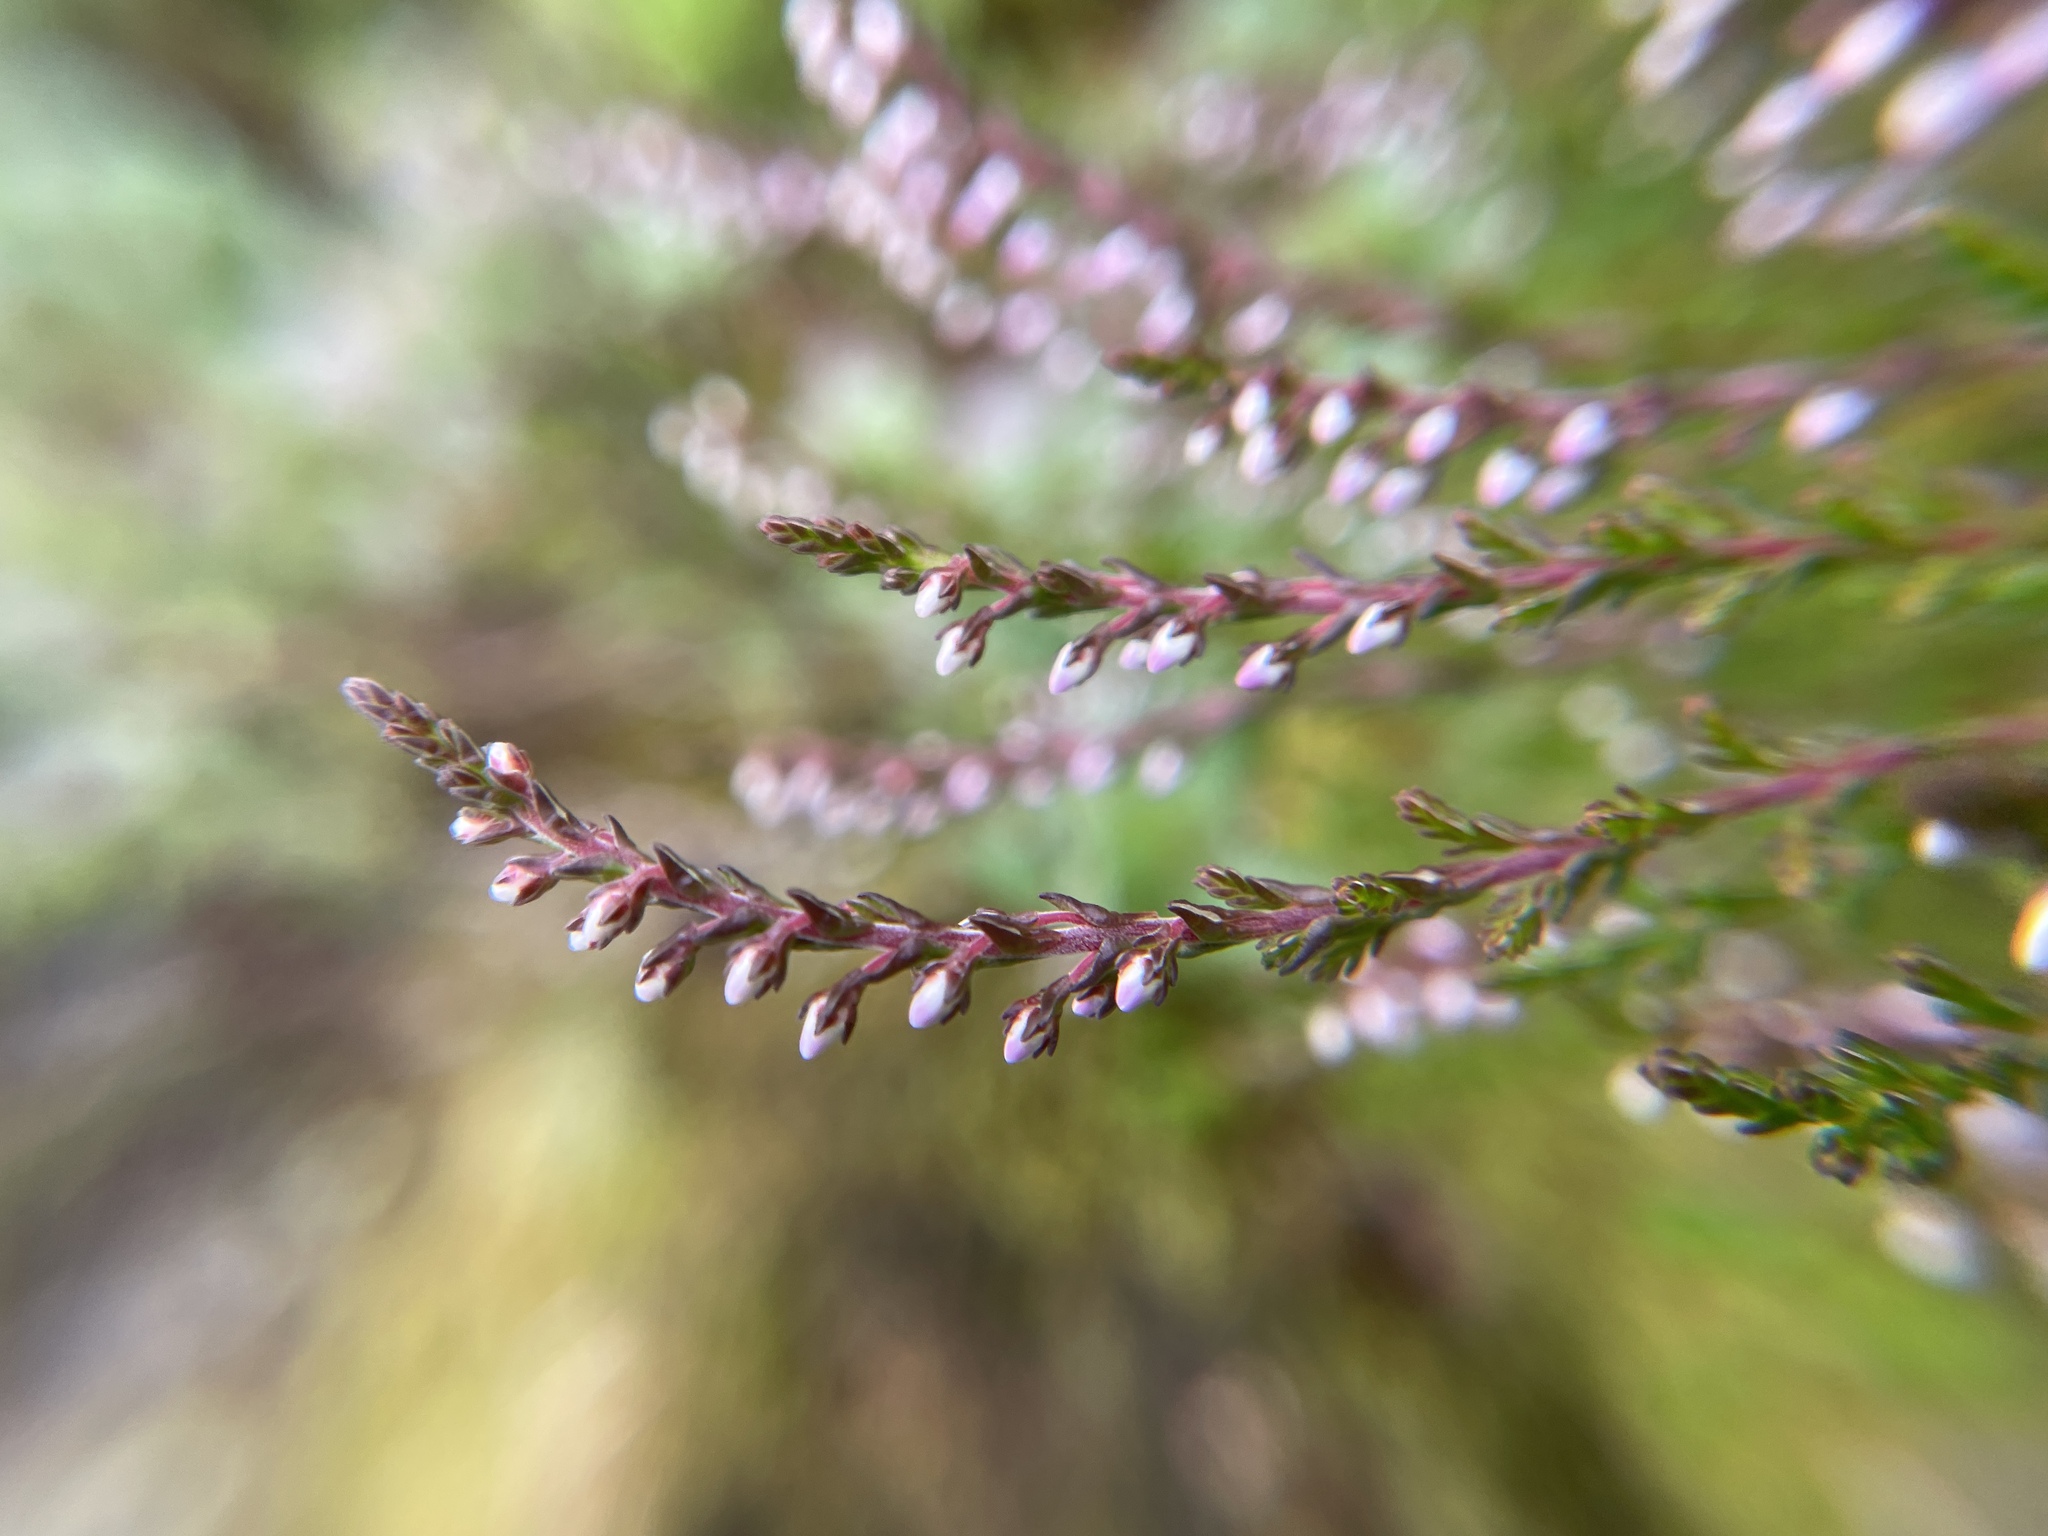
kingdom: Plantae
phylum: Tracheophyta
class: Magnoliopsida
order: Ericales
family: Ericaceae
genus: Calluna
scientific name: Calluna vulgaris
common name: Heather
